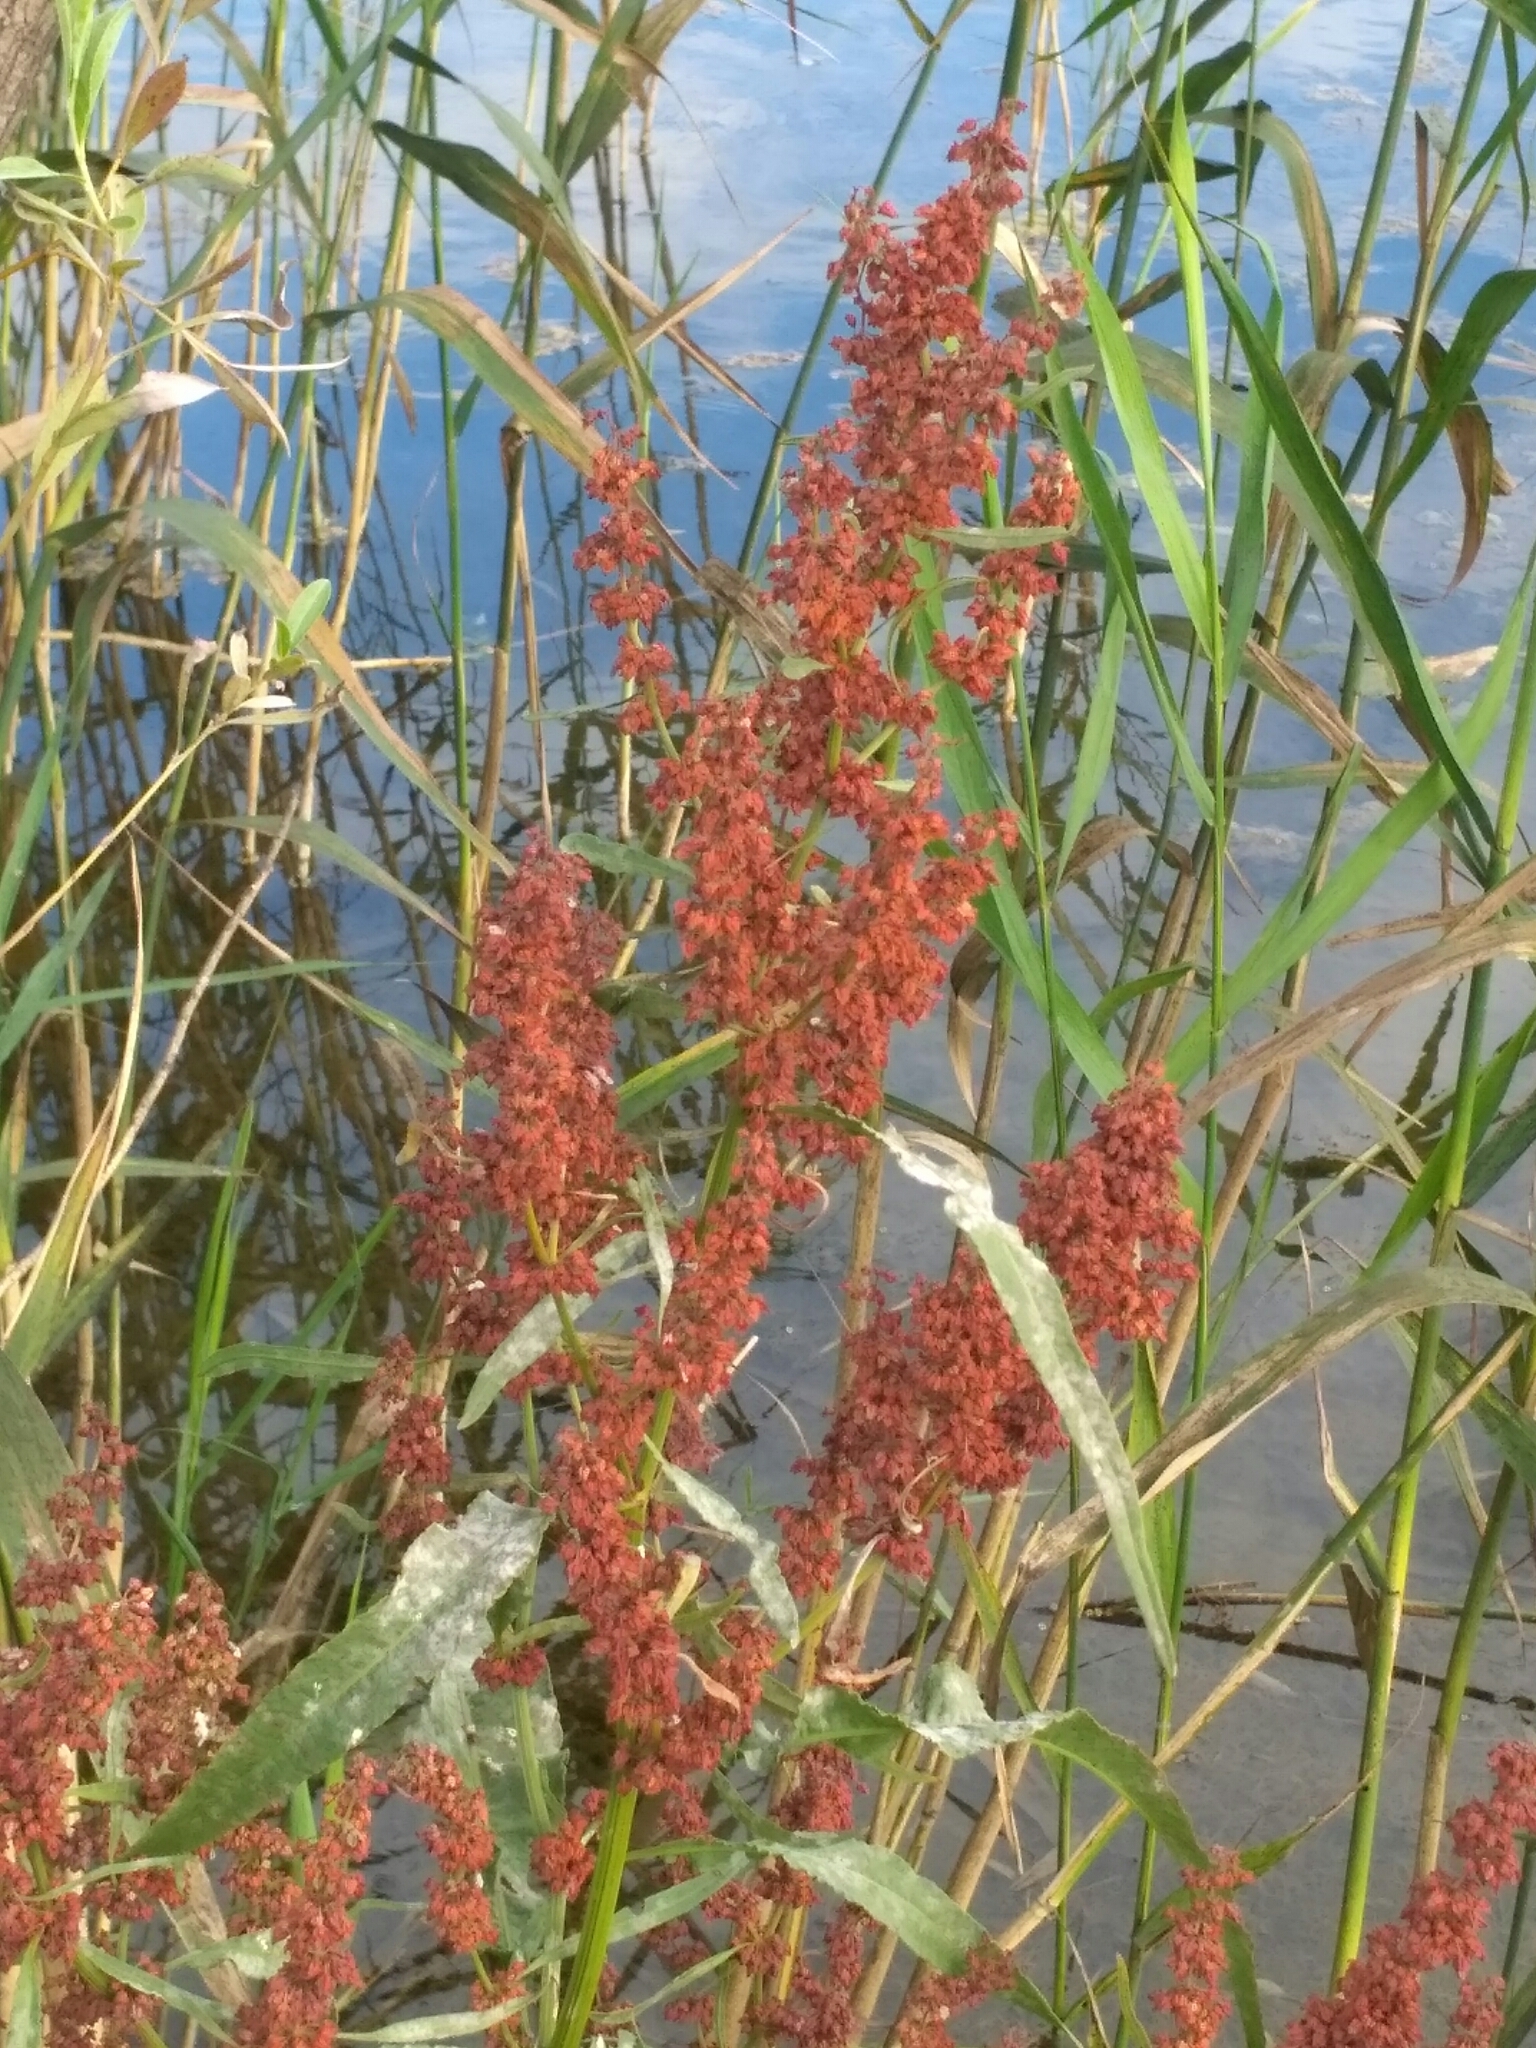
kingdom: Fungi
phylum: Ascomycota
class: Leotiomycetes
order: Helotiales
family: Erysiphaceae
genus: Erysiphe
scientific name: Erysiphe polygoni
